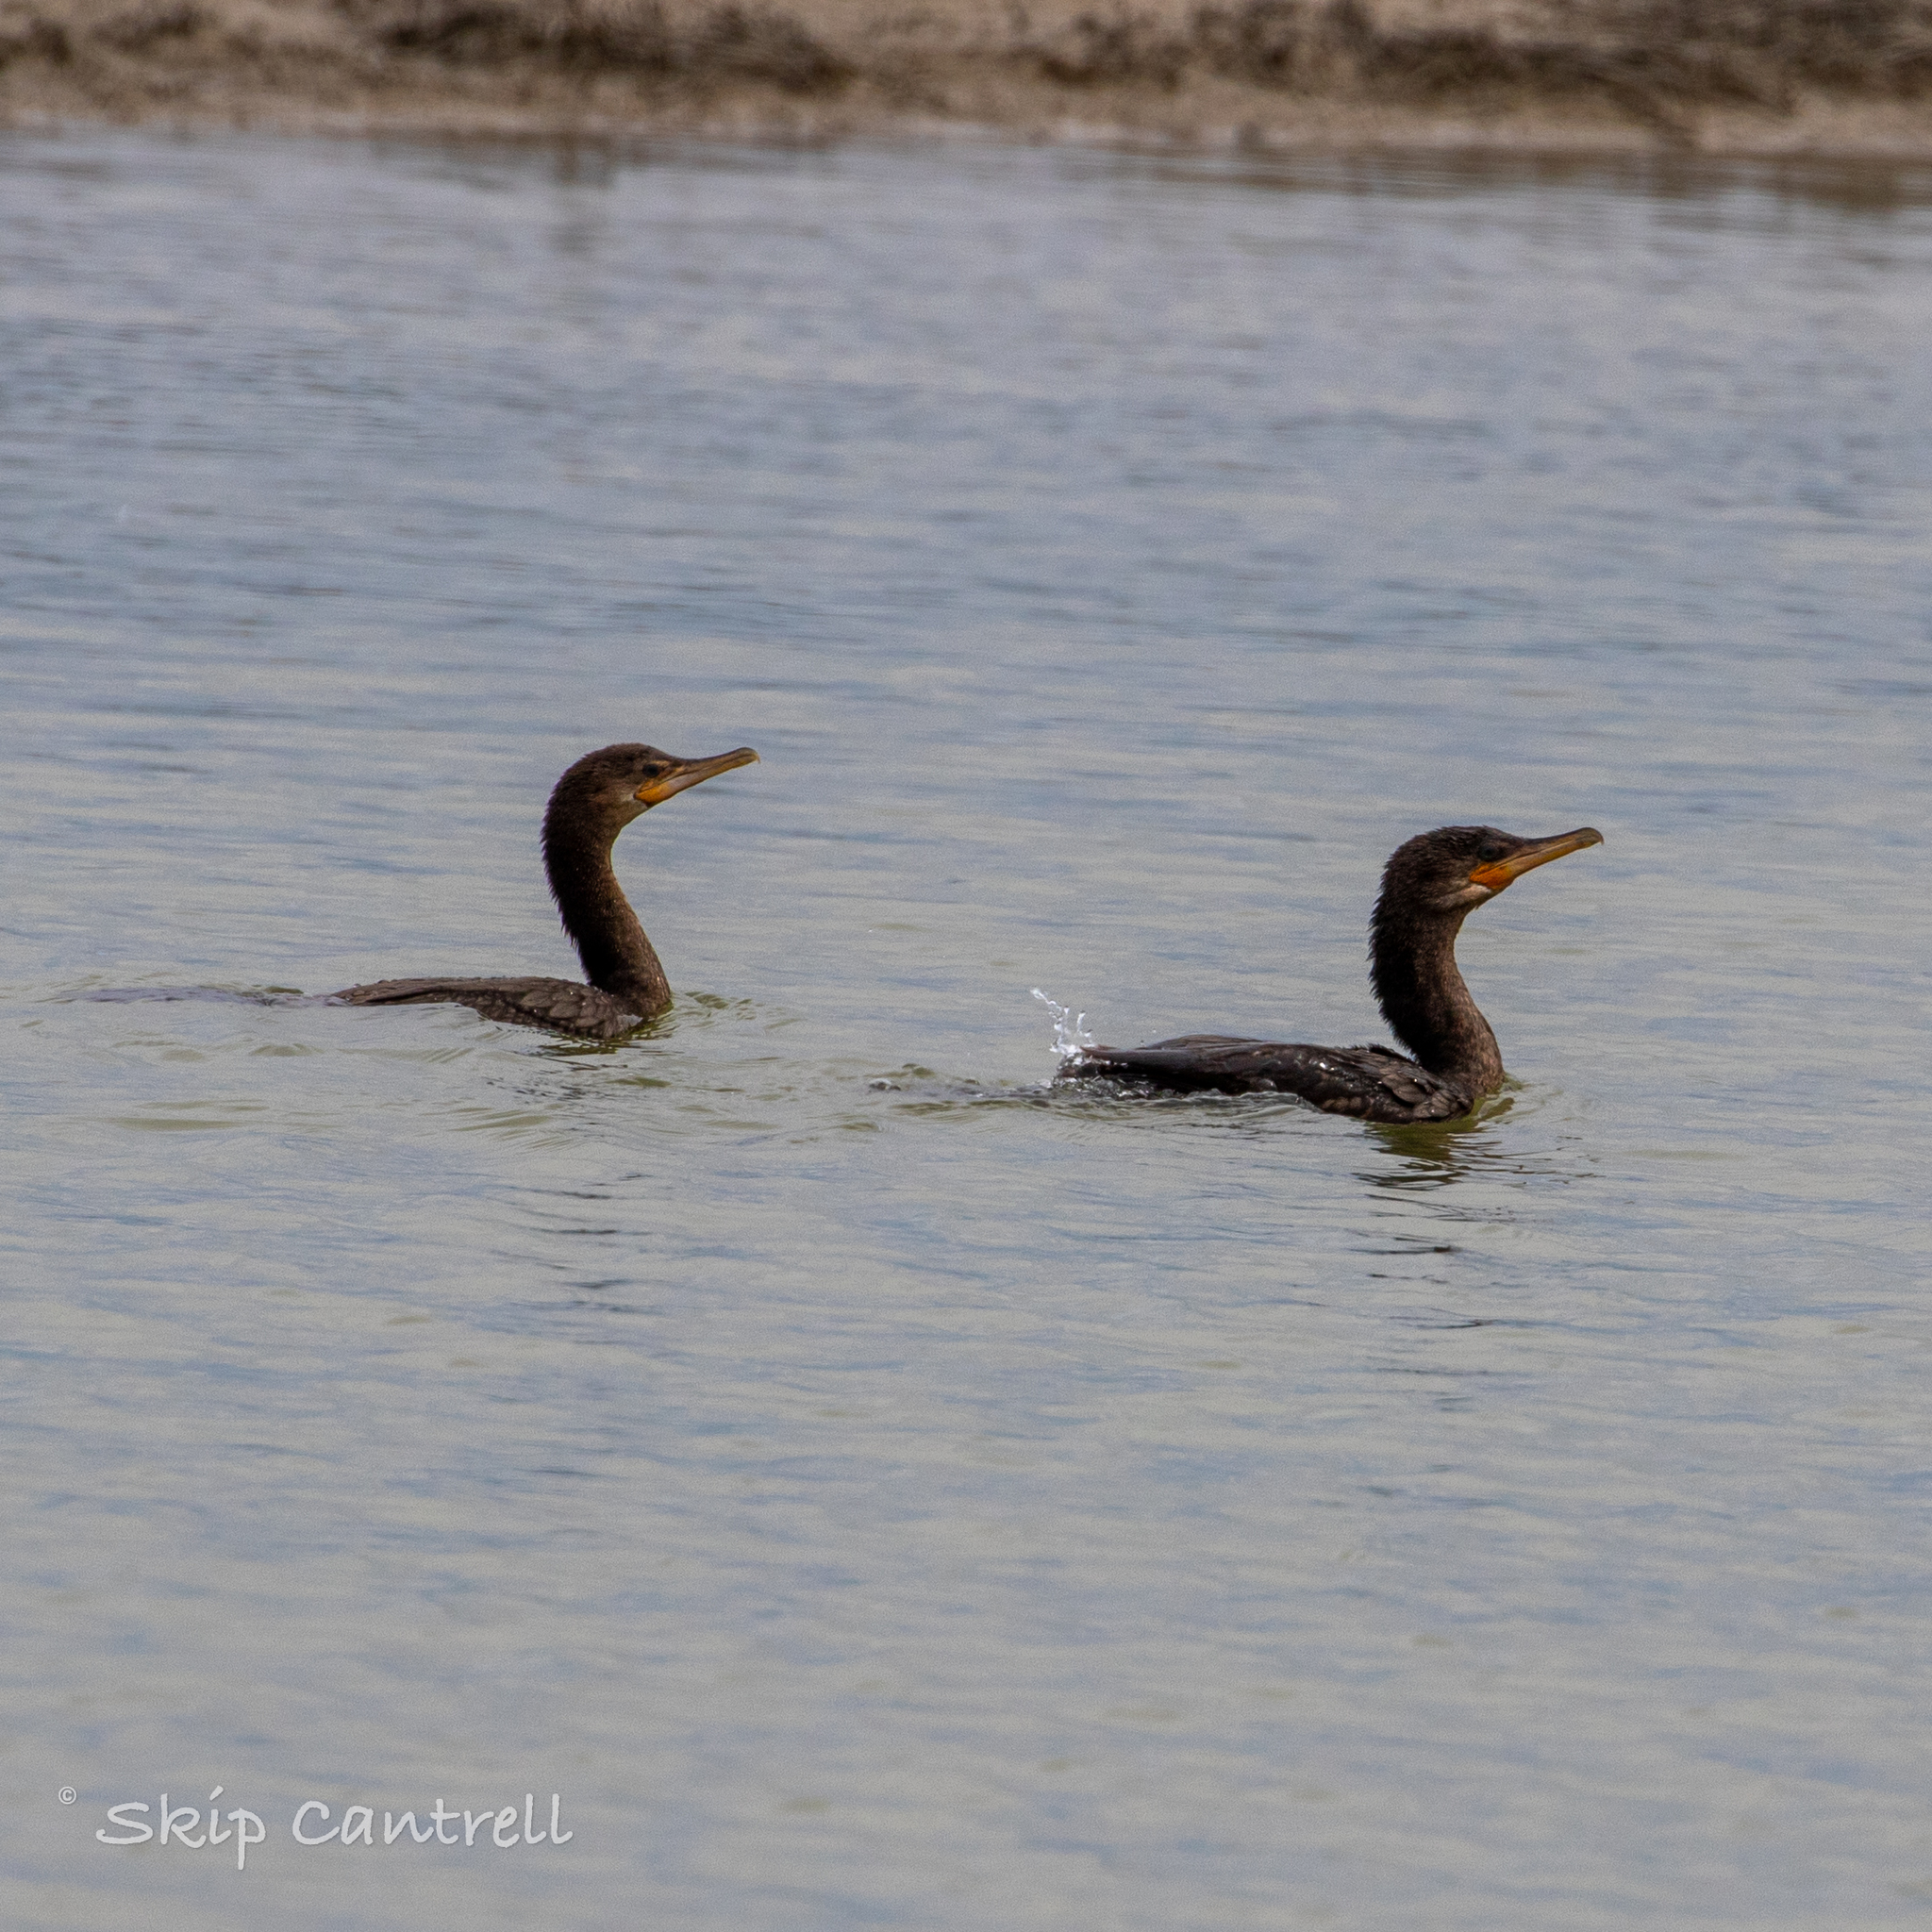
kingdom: Animalia
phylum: Chordata
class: Aves
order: Suliformes
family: Phalacrocoracidae
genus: Phalacrocorax
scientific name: Phalacrocorax brasilianus
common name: Neotropic cormorant
